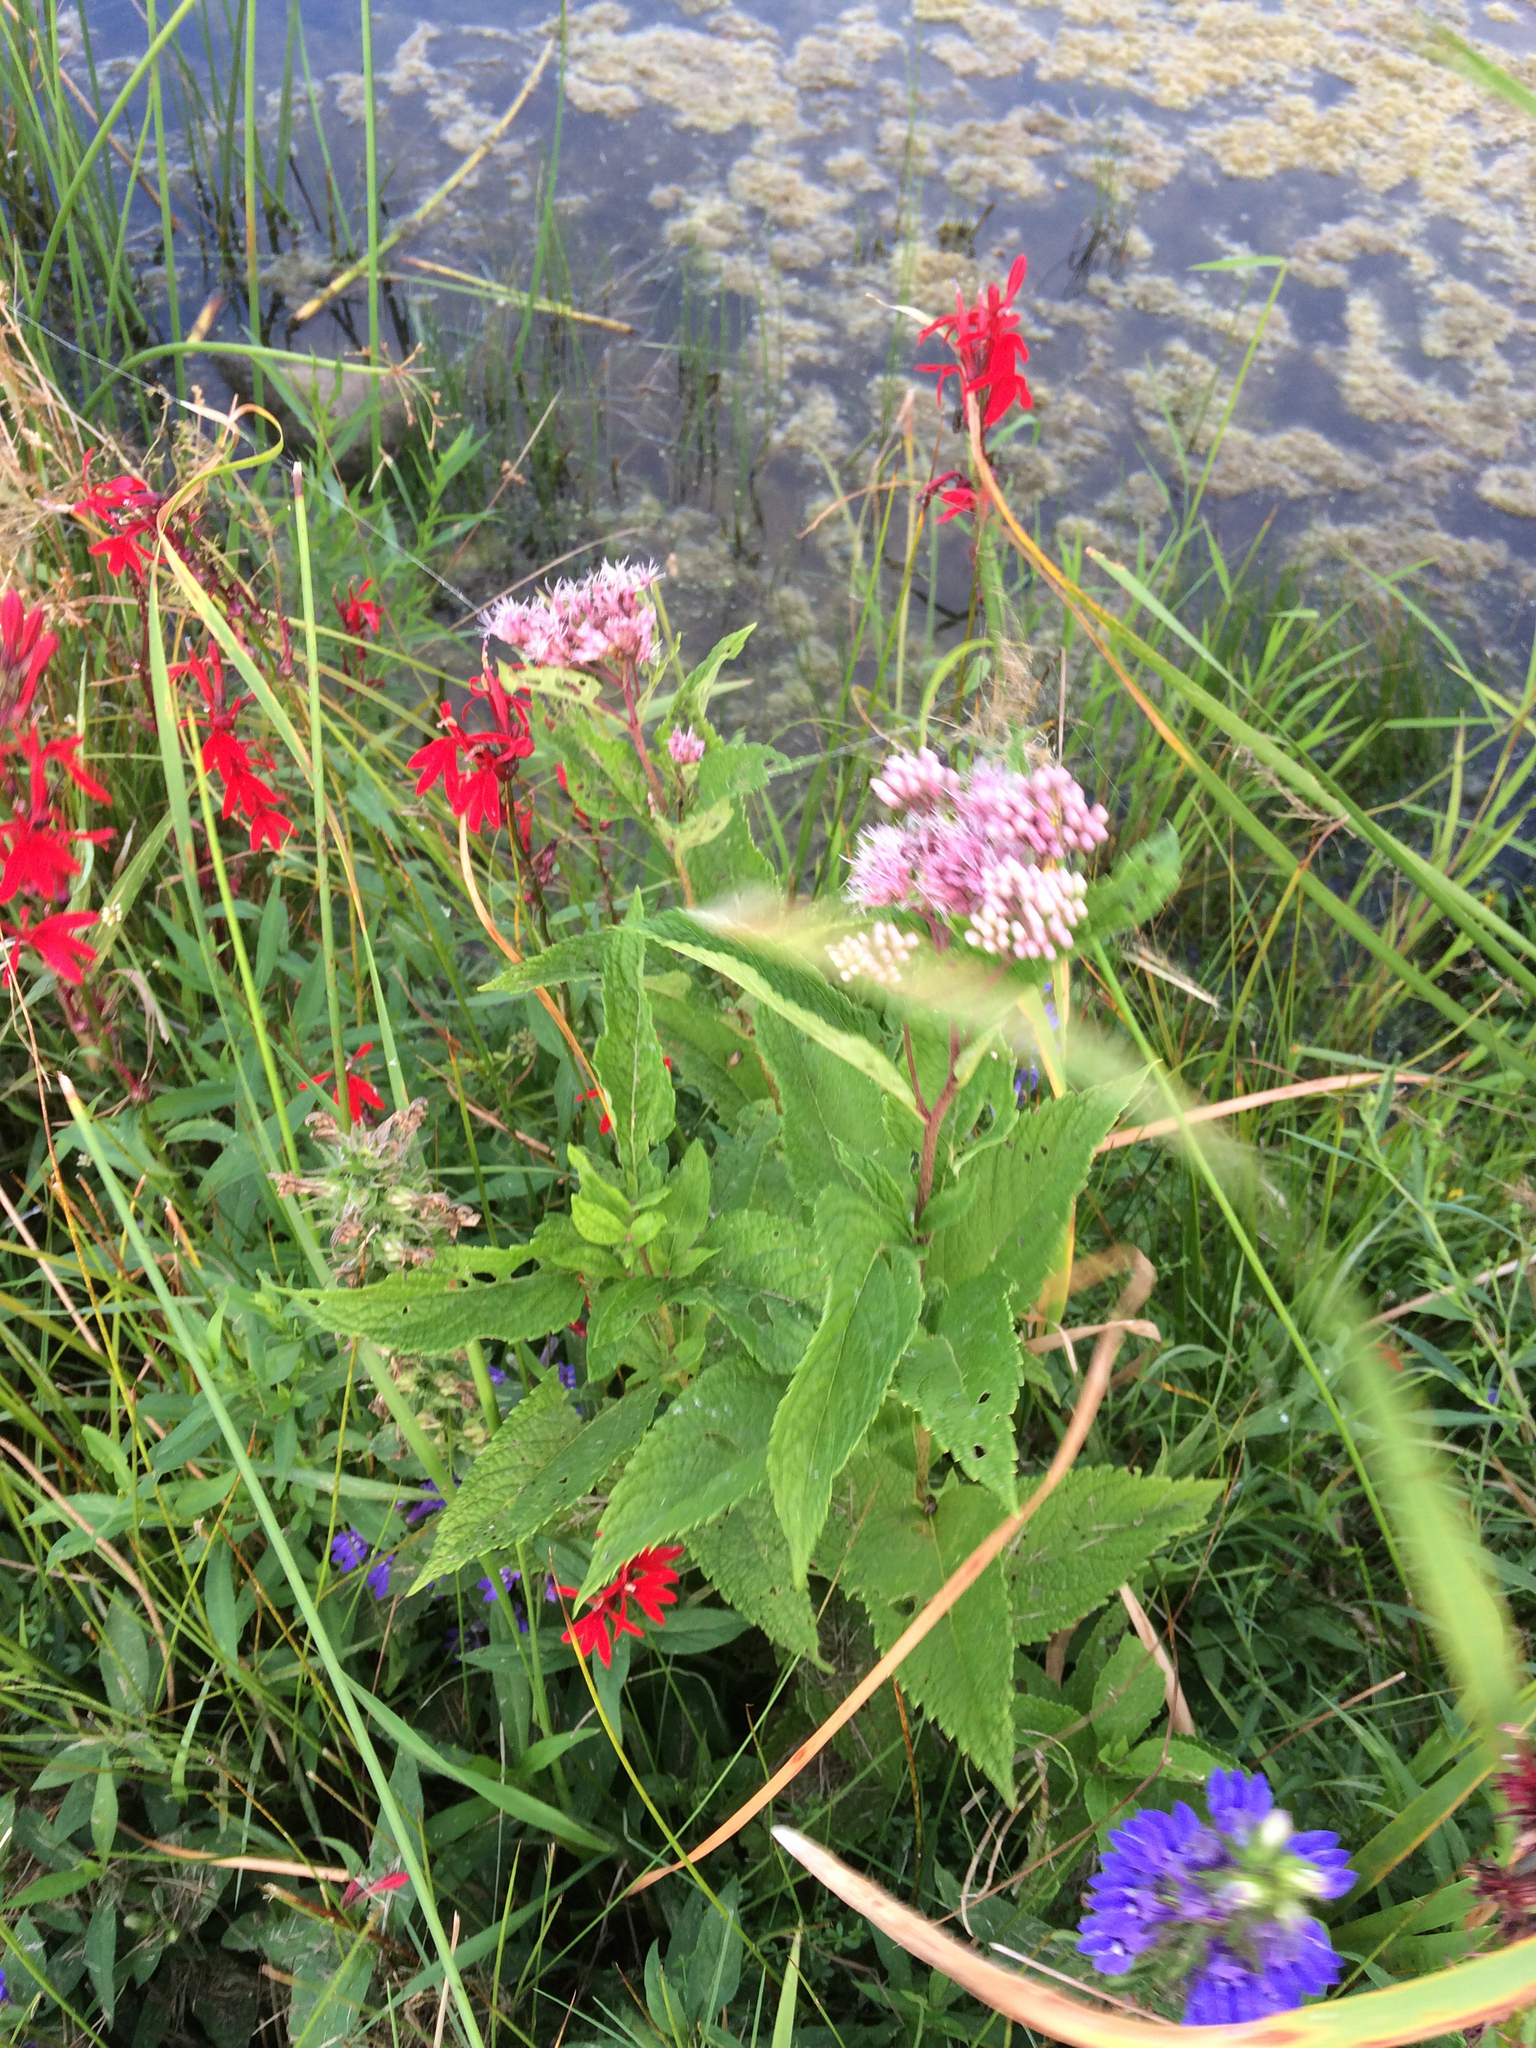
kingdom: Plantae
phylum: Tracheophyta
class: Magnoliopsida
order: Asterales
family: Asteraceae
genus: Eutrochium
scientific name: Eutrochium maculatum
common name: Spotted joe pye weed
